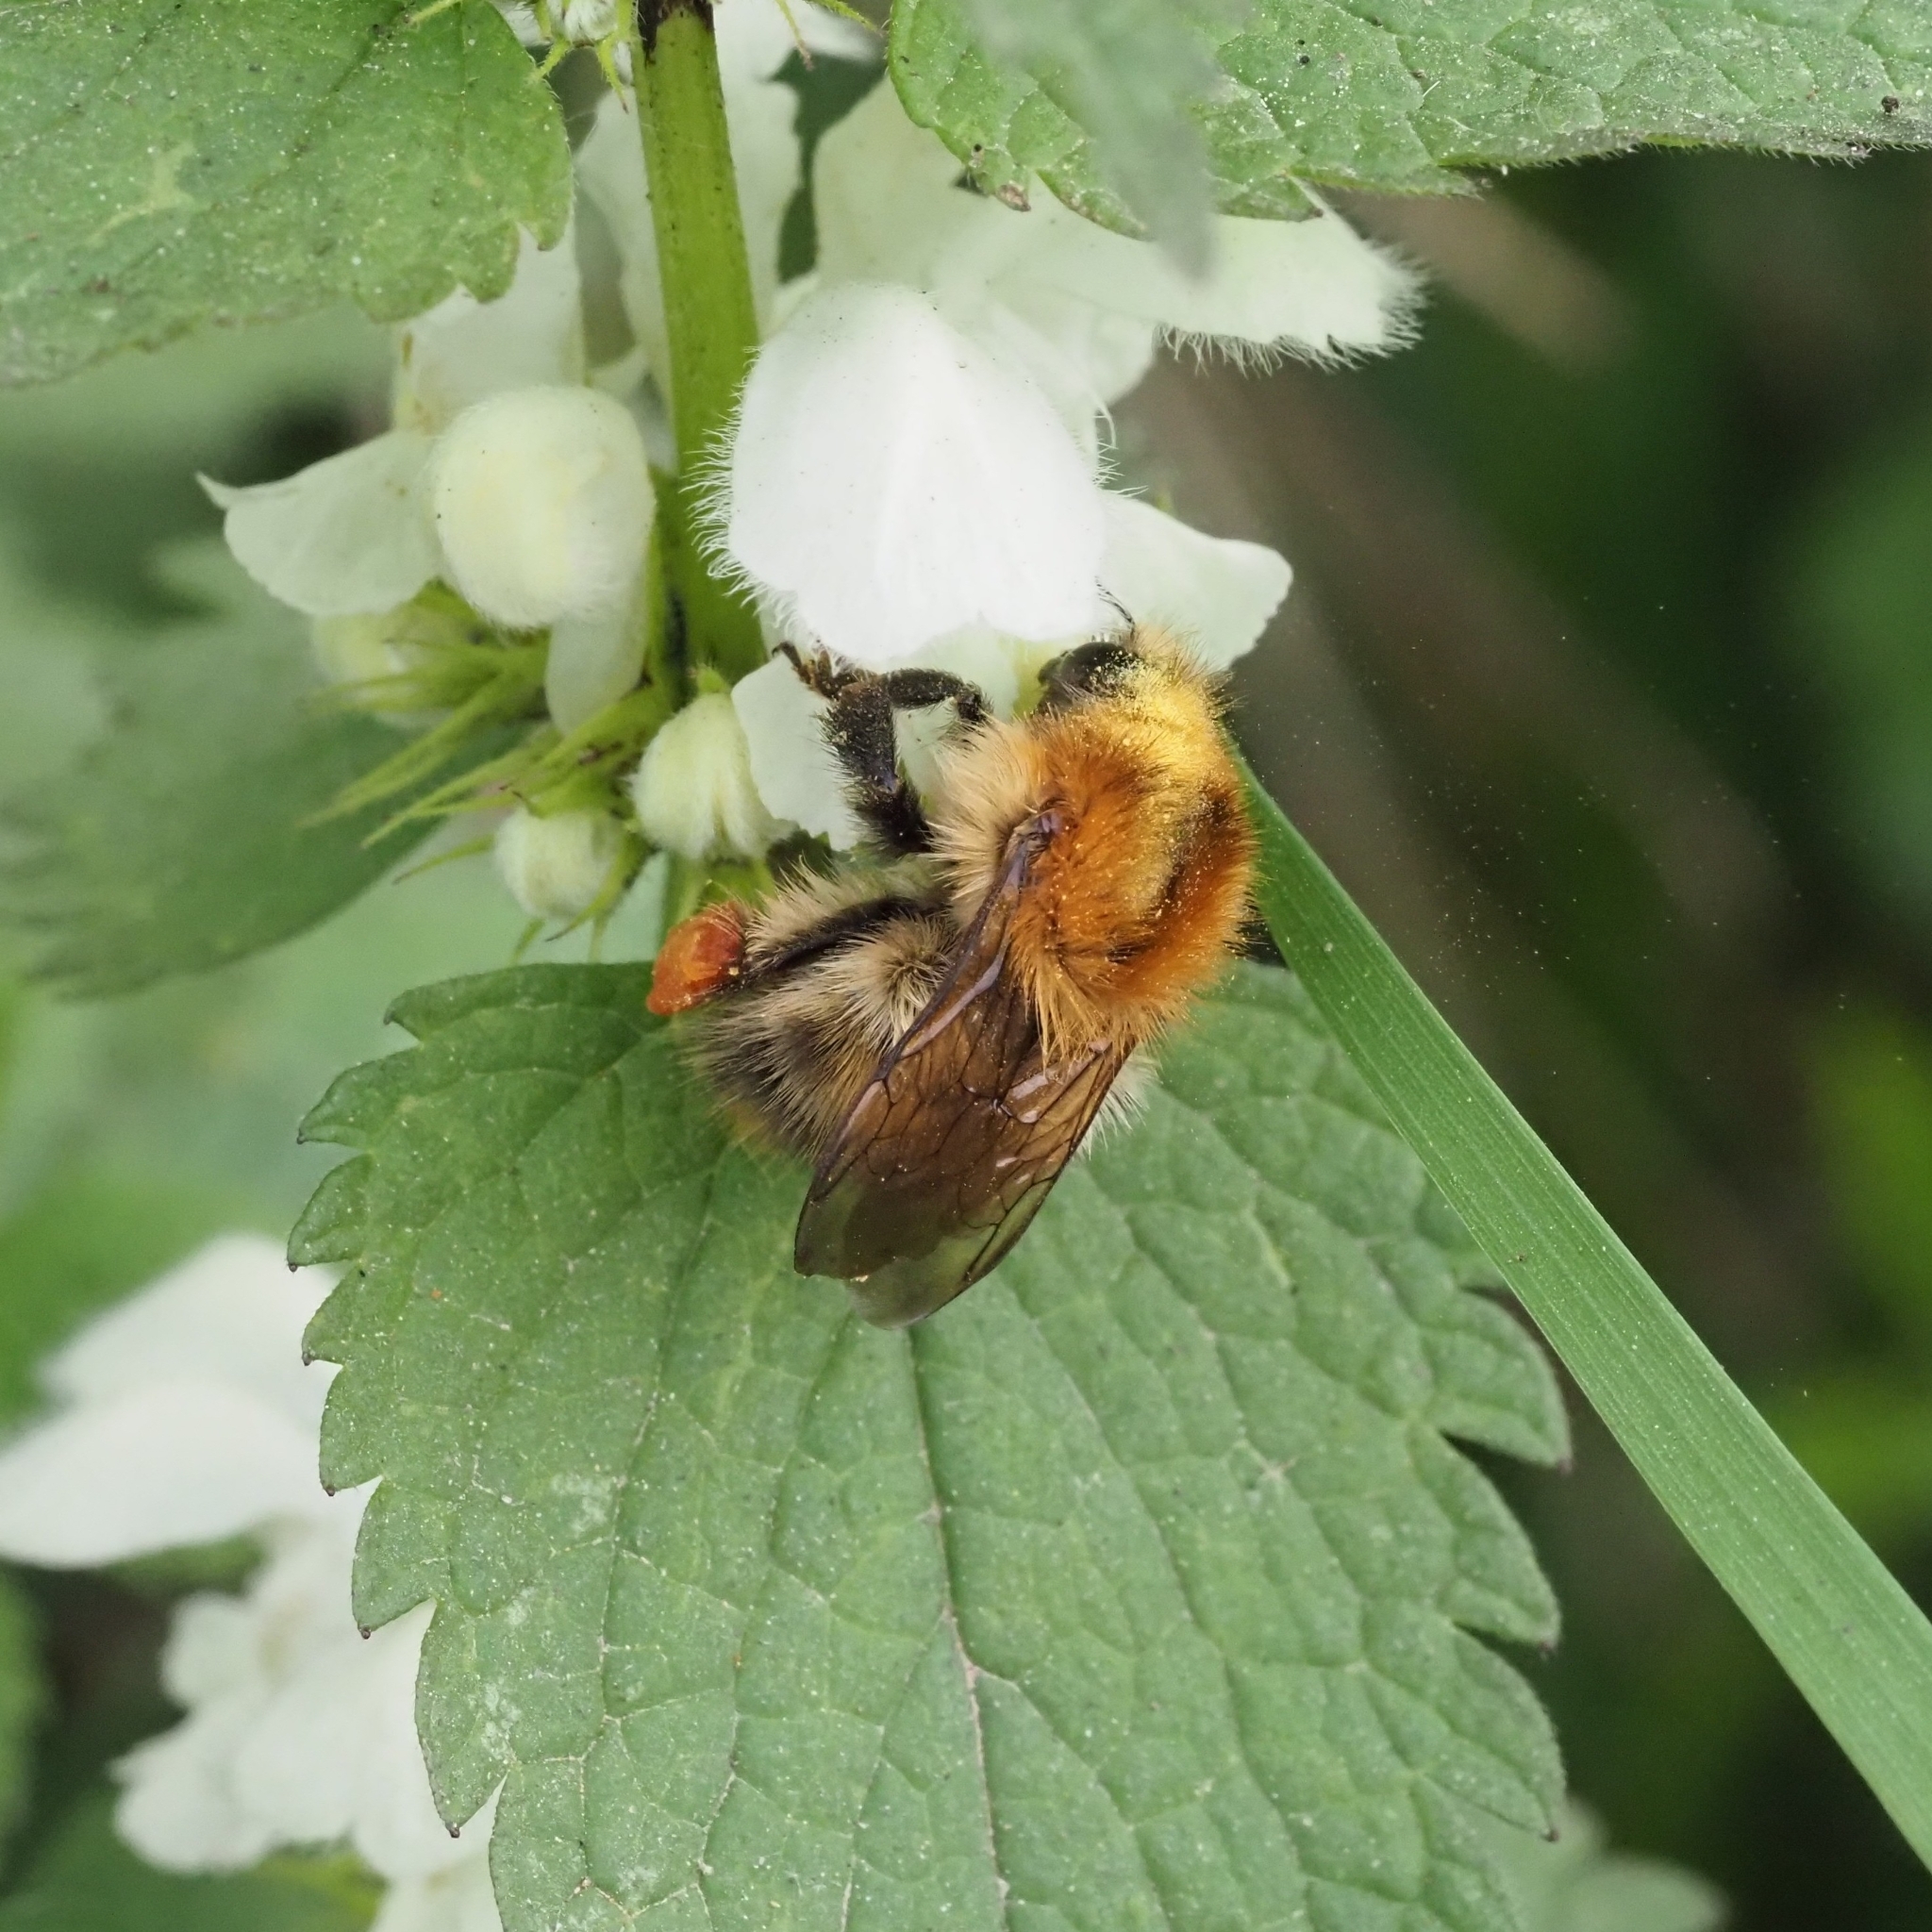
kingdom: Animalia
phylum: Arthropoda
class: Insecta
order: Hymenoptera
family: Apidae
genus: Bombus
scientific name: Bombus pascuorum
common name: Common carder bee
